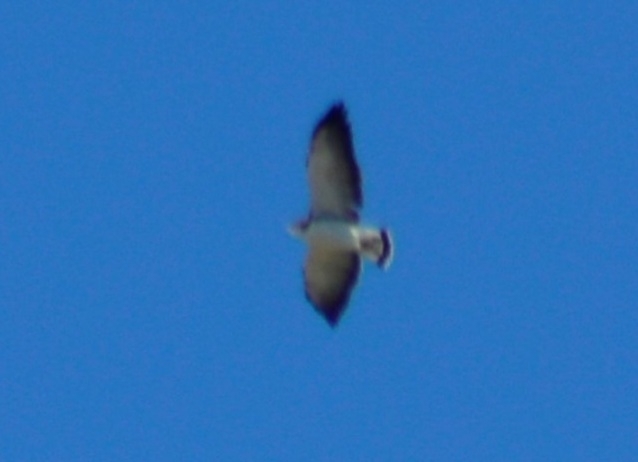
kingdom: Animalia
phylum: Chordata
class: Aves
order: Accipitriformes
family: Accipitridae
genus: Buteo
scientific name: Buteo polyosoma
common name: Variable hawk
